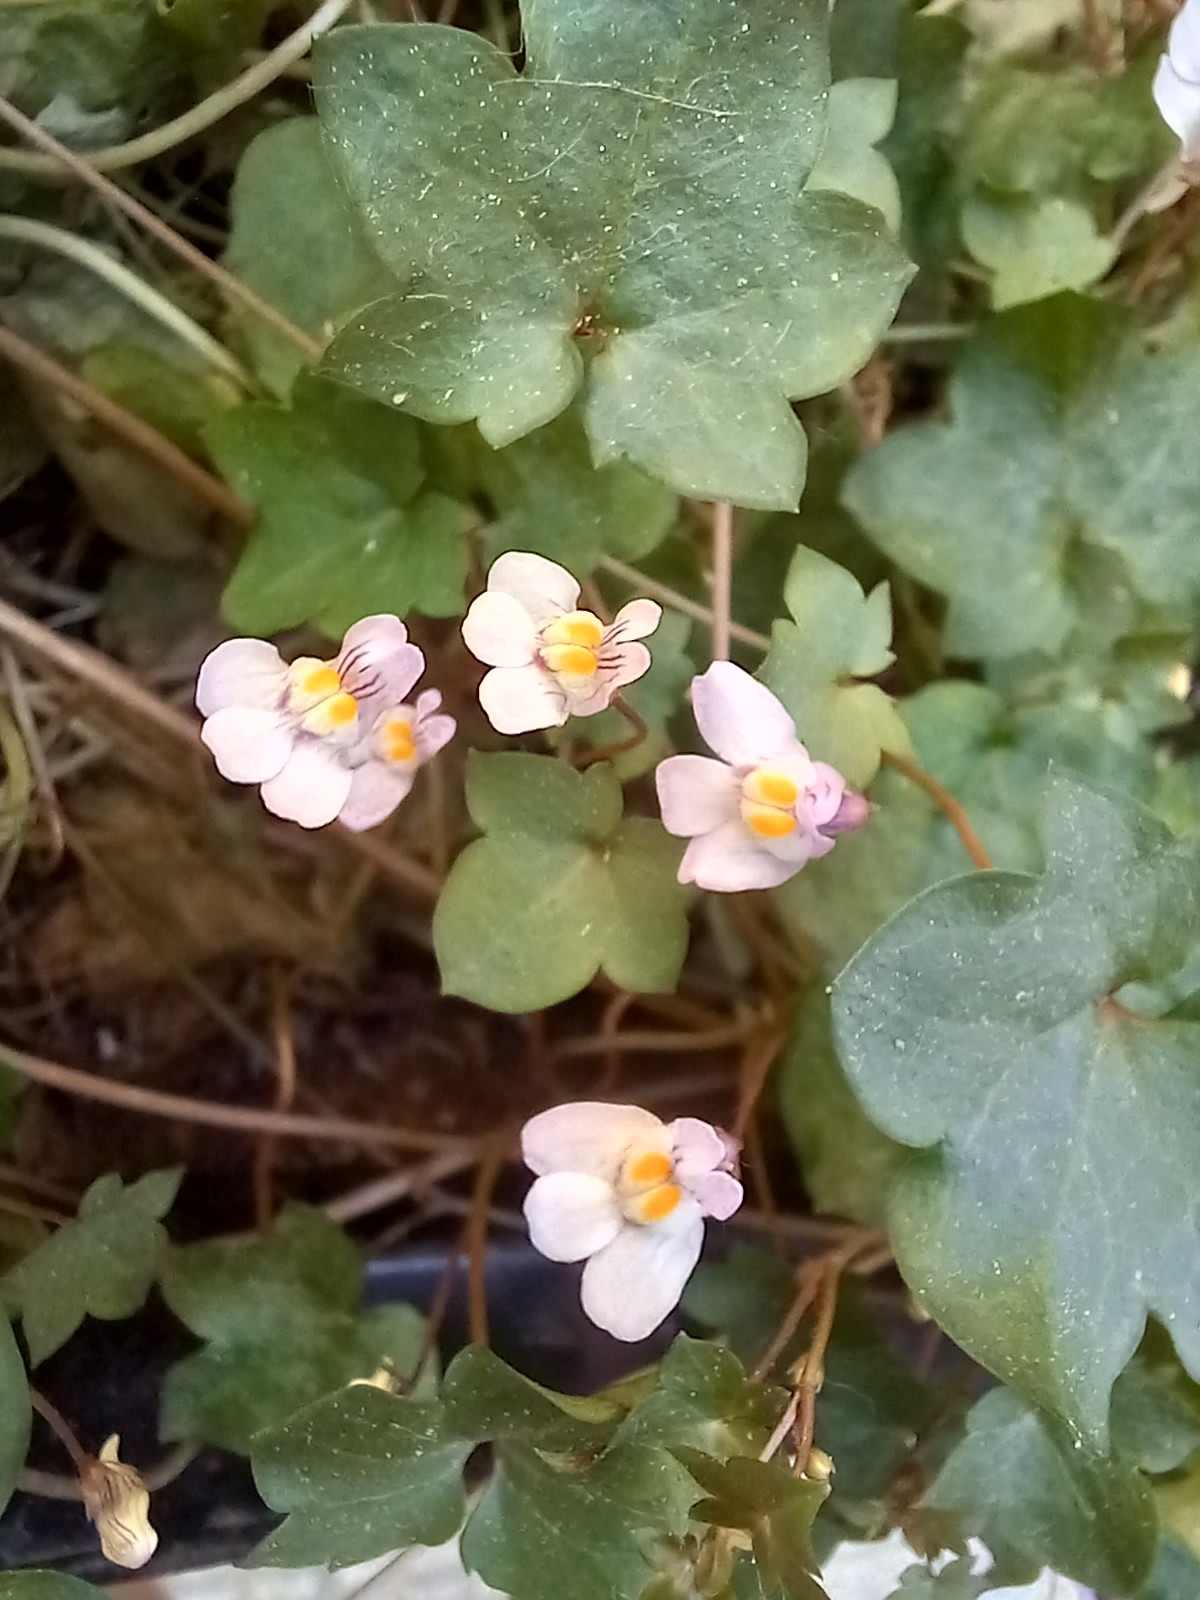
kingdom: Plantae
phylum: Tracheophyta
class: Magnoliopsida
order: Lamiales
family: Plantaginaceae
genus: Cymbalaria
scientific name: Cymbalaria muralis
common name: Ivy-leaved toadflax
